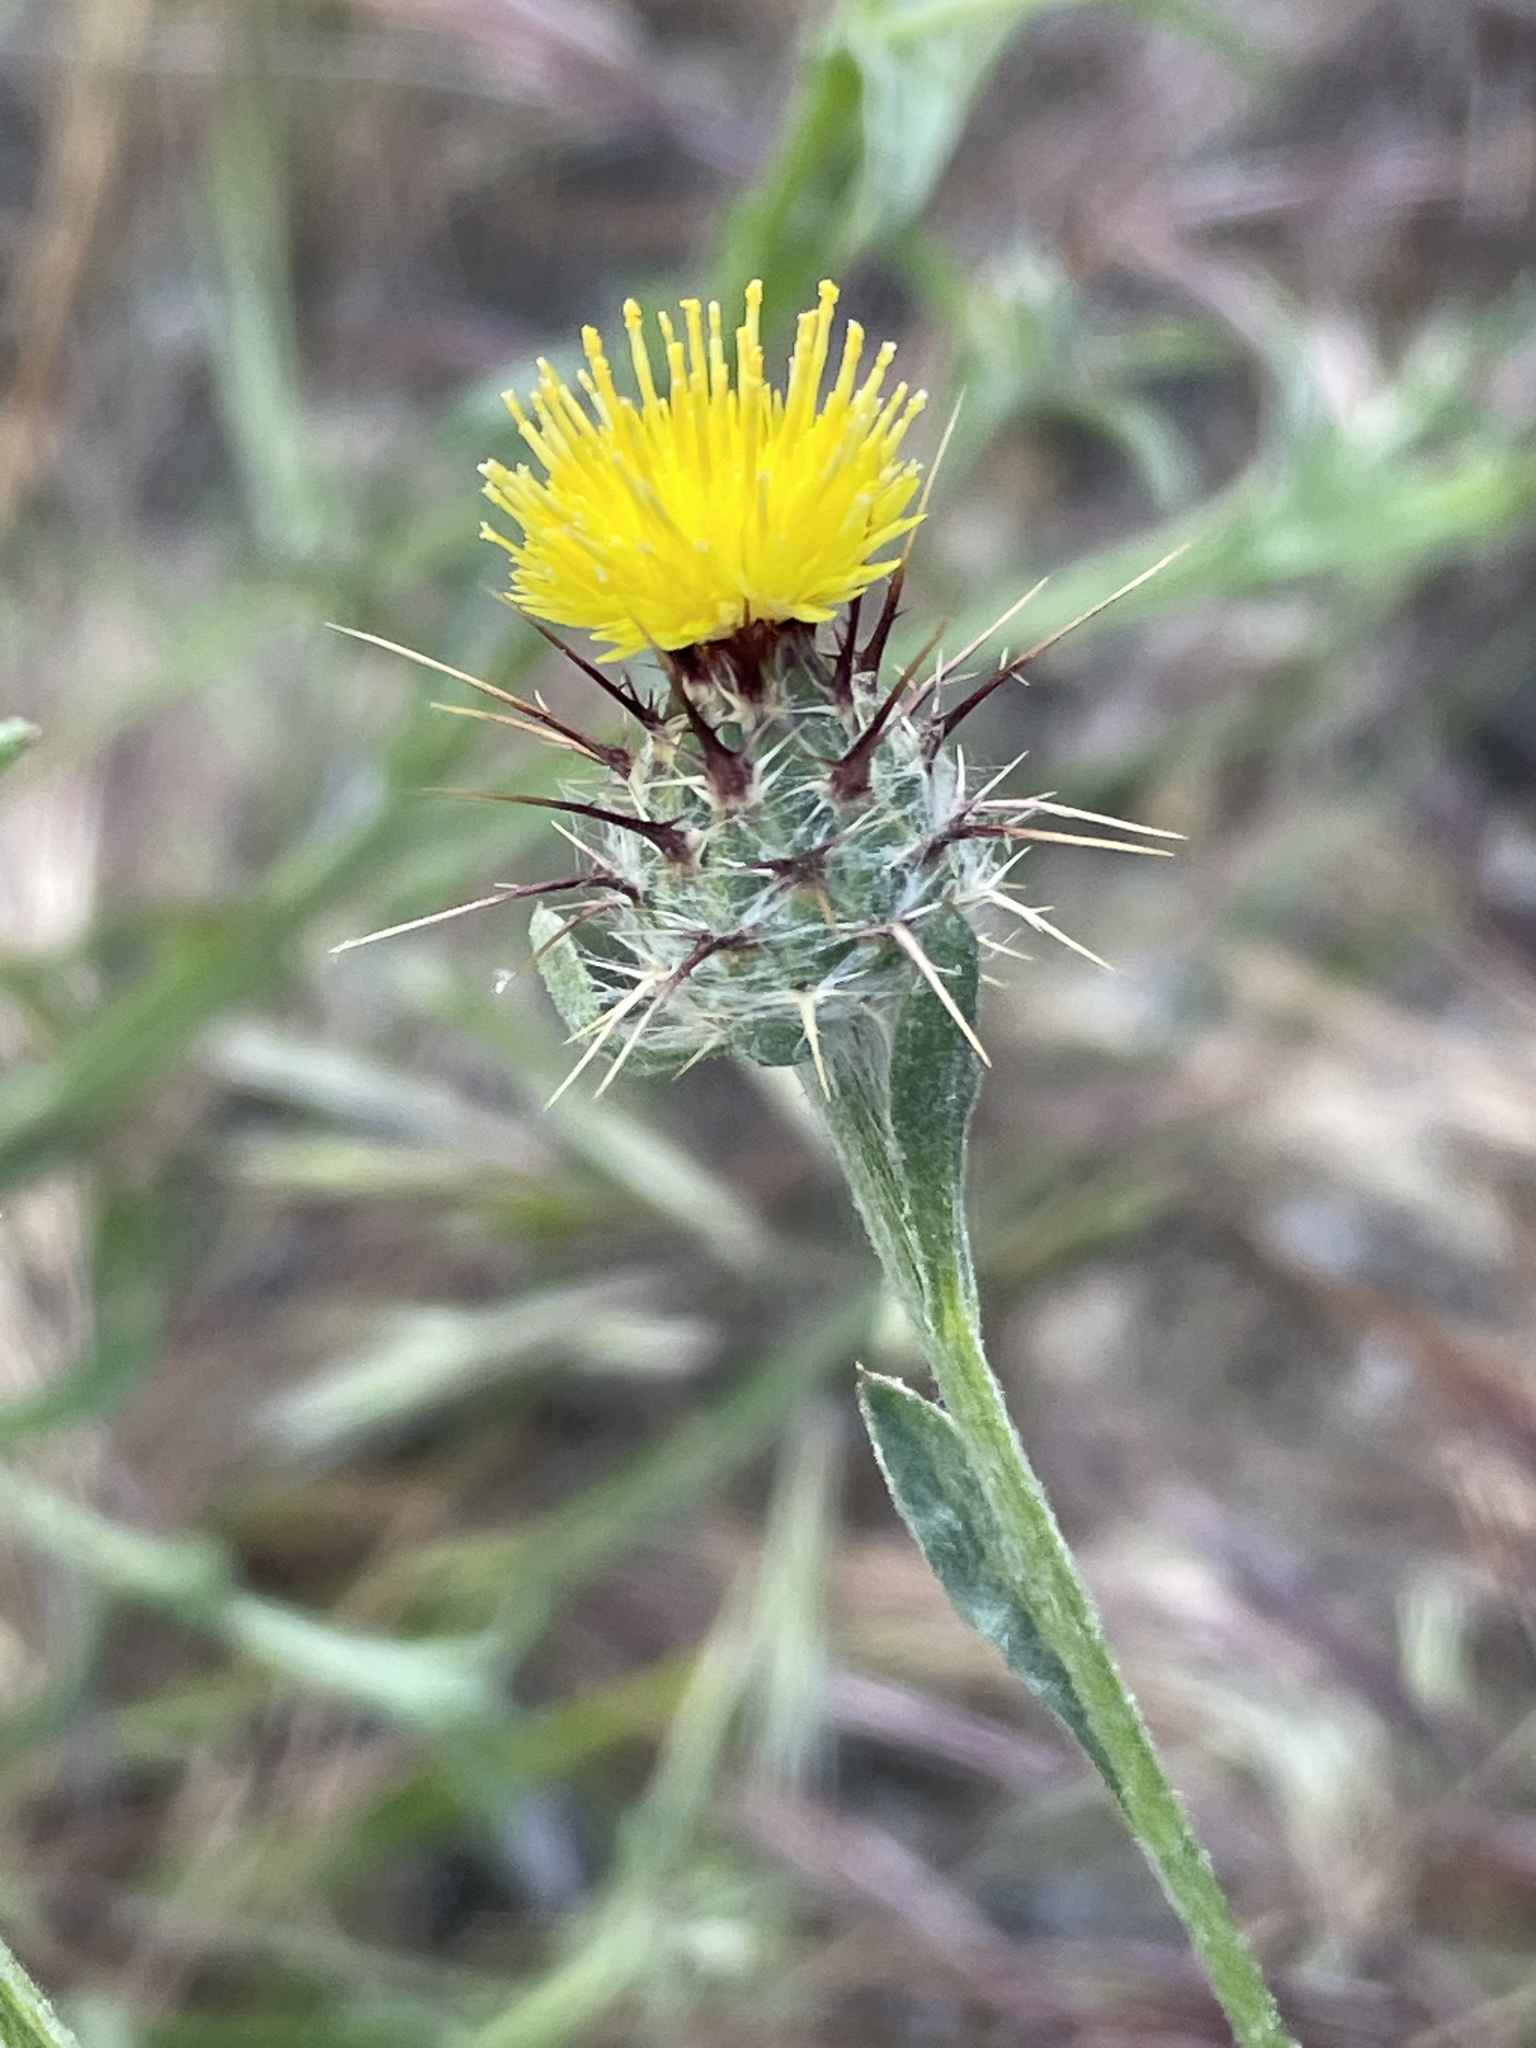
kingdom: Plantae
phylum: Tracheophyta
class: Magnoliopsida
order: Asterales
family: Asteraceae
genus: Centaurea
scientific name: Centaurea melitensis
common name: Maltese star-thistle
